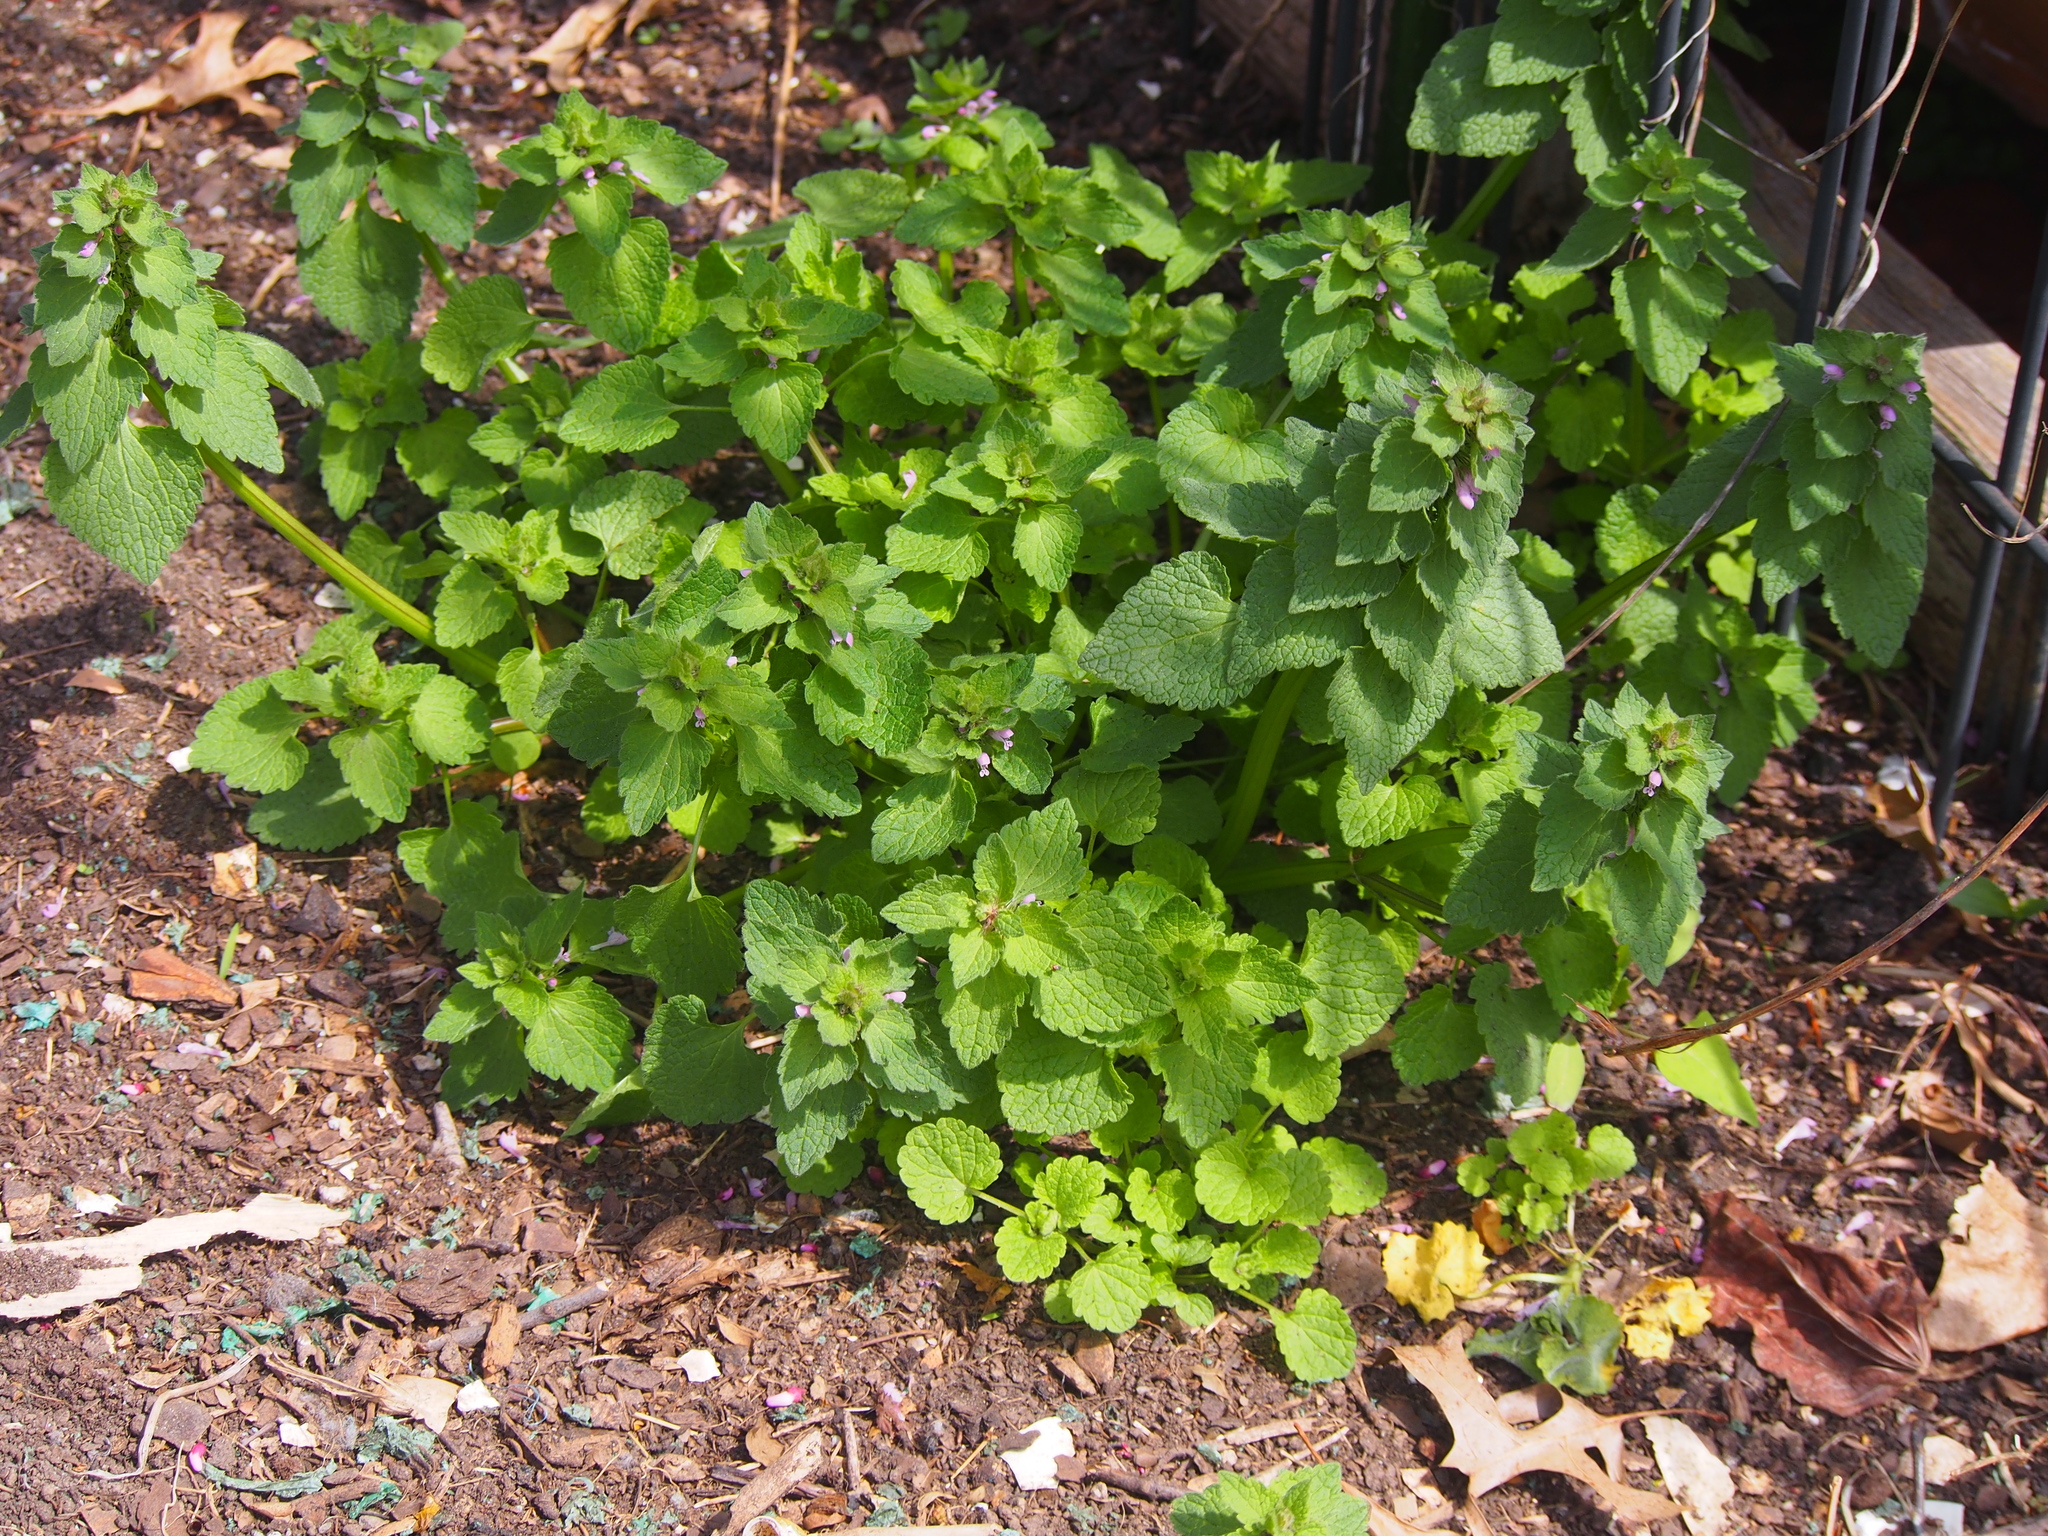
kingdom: Plantae
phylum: Tracheophyta
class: Magnoliopsida
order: Lamiales
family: Lamiaceae
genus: Lamium
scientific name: Lamium purpureum
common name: Red dead-nettle
